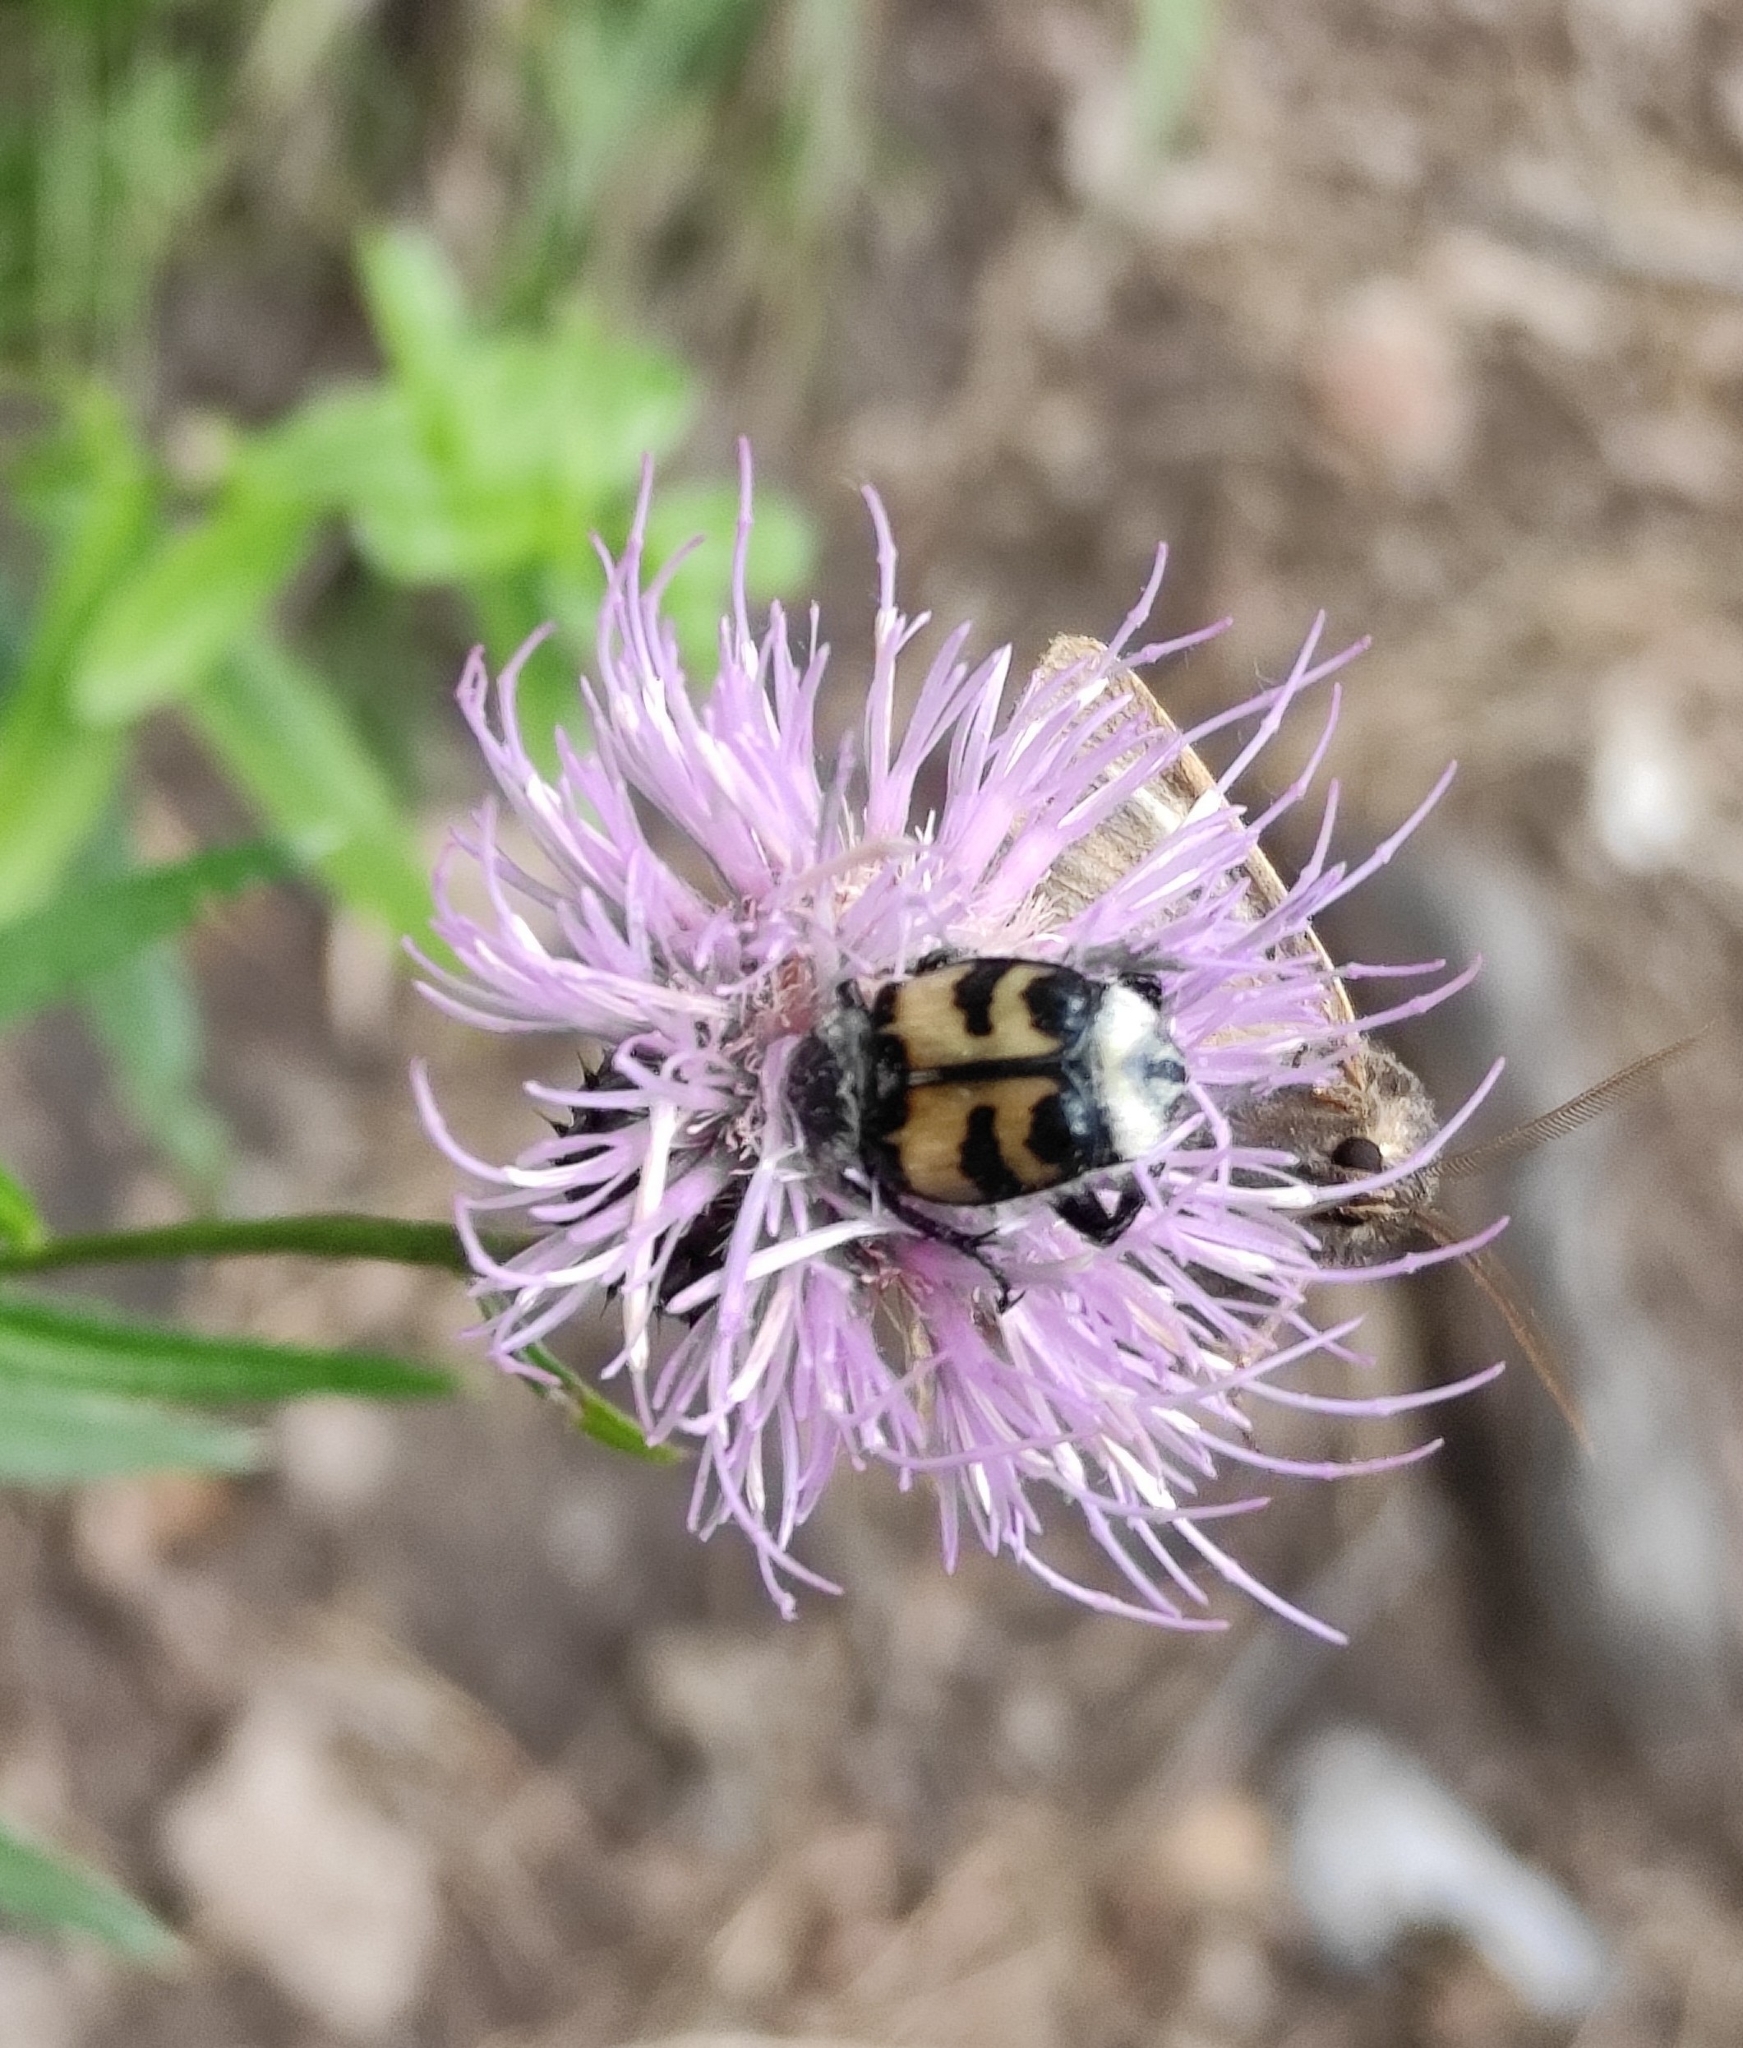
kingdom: Animalia
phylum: Arthropoda
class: Insecta
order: Coleoptera
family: Scarabaeidae
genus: Trichius
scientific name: Trichius fasciatus
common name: Bee beetle
